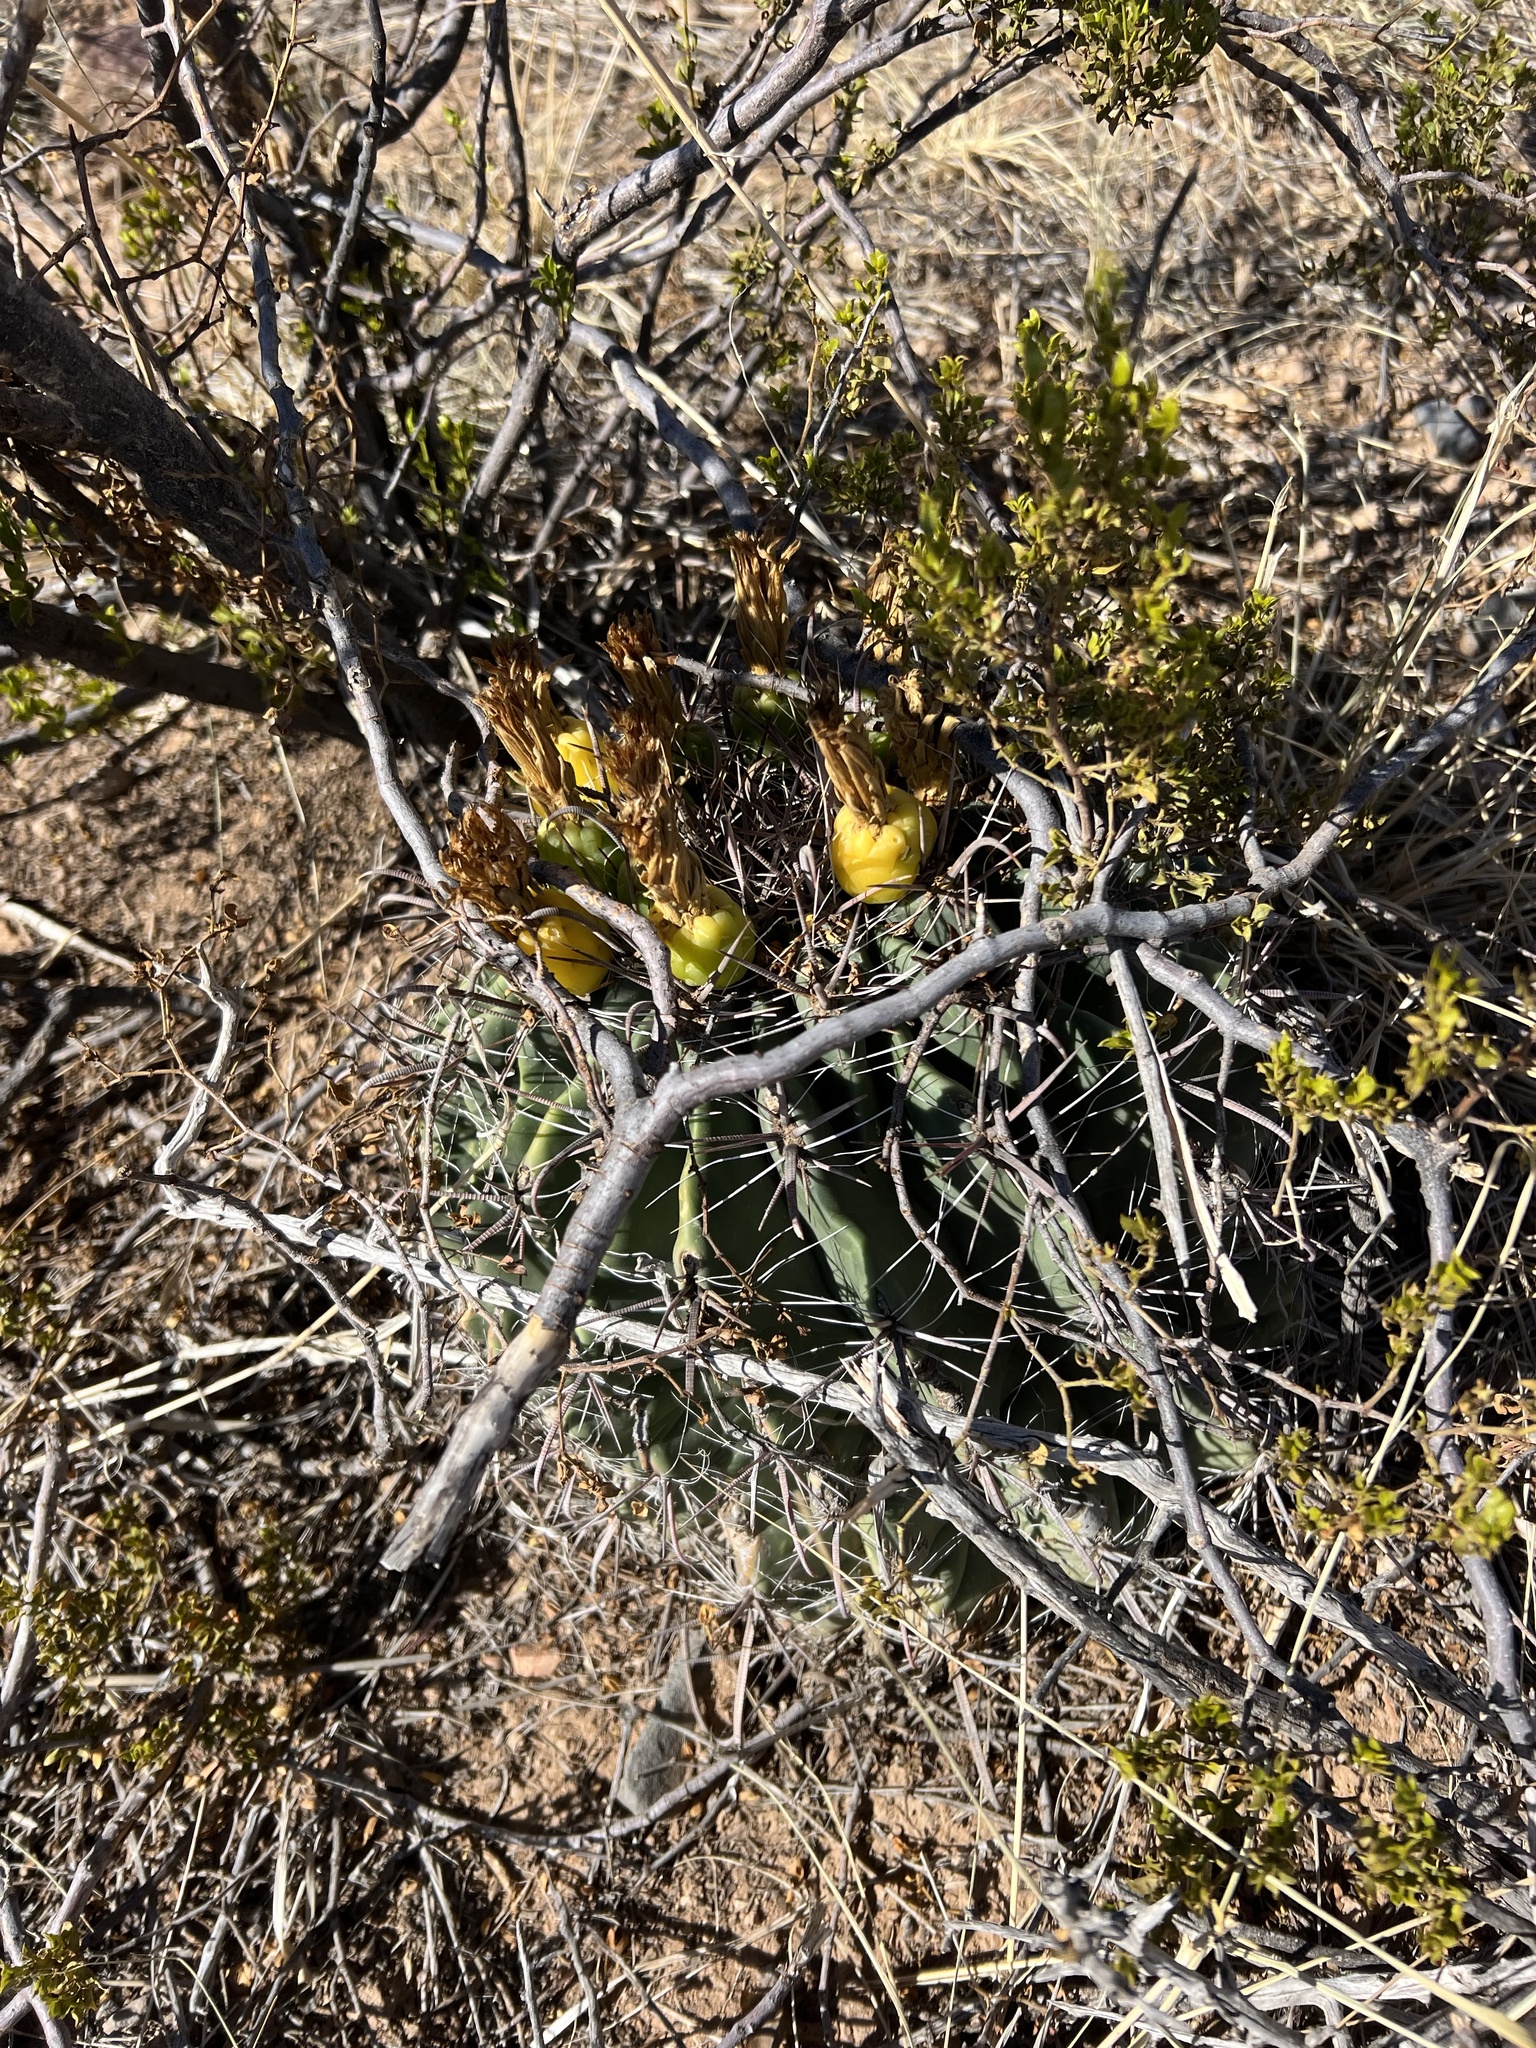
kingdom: Plantae
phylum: Tracheophyta
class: Magnoliopsida
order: Caryophyllales
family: Cactaceae
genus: Ferocactus
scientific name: Ferocactus wislizeni
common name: Candy barrel cactus
